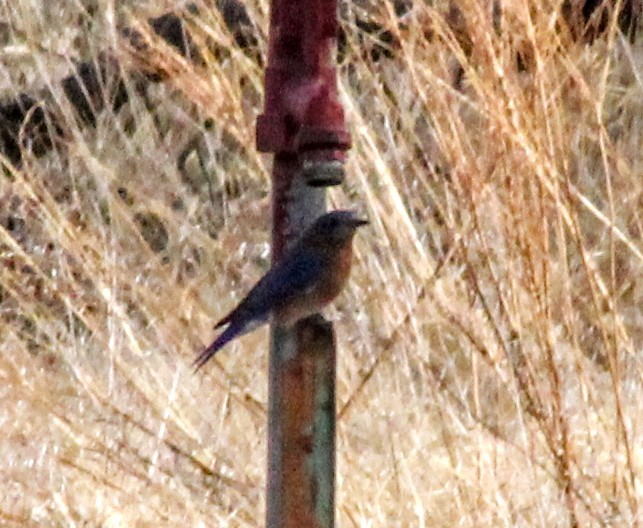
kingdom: Animalia
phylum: Chordata
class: Aves
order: Passeriformes
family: Turdidae
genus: Sialia
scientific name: Sialia sialis
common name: Eastern bluebird
